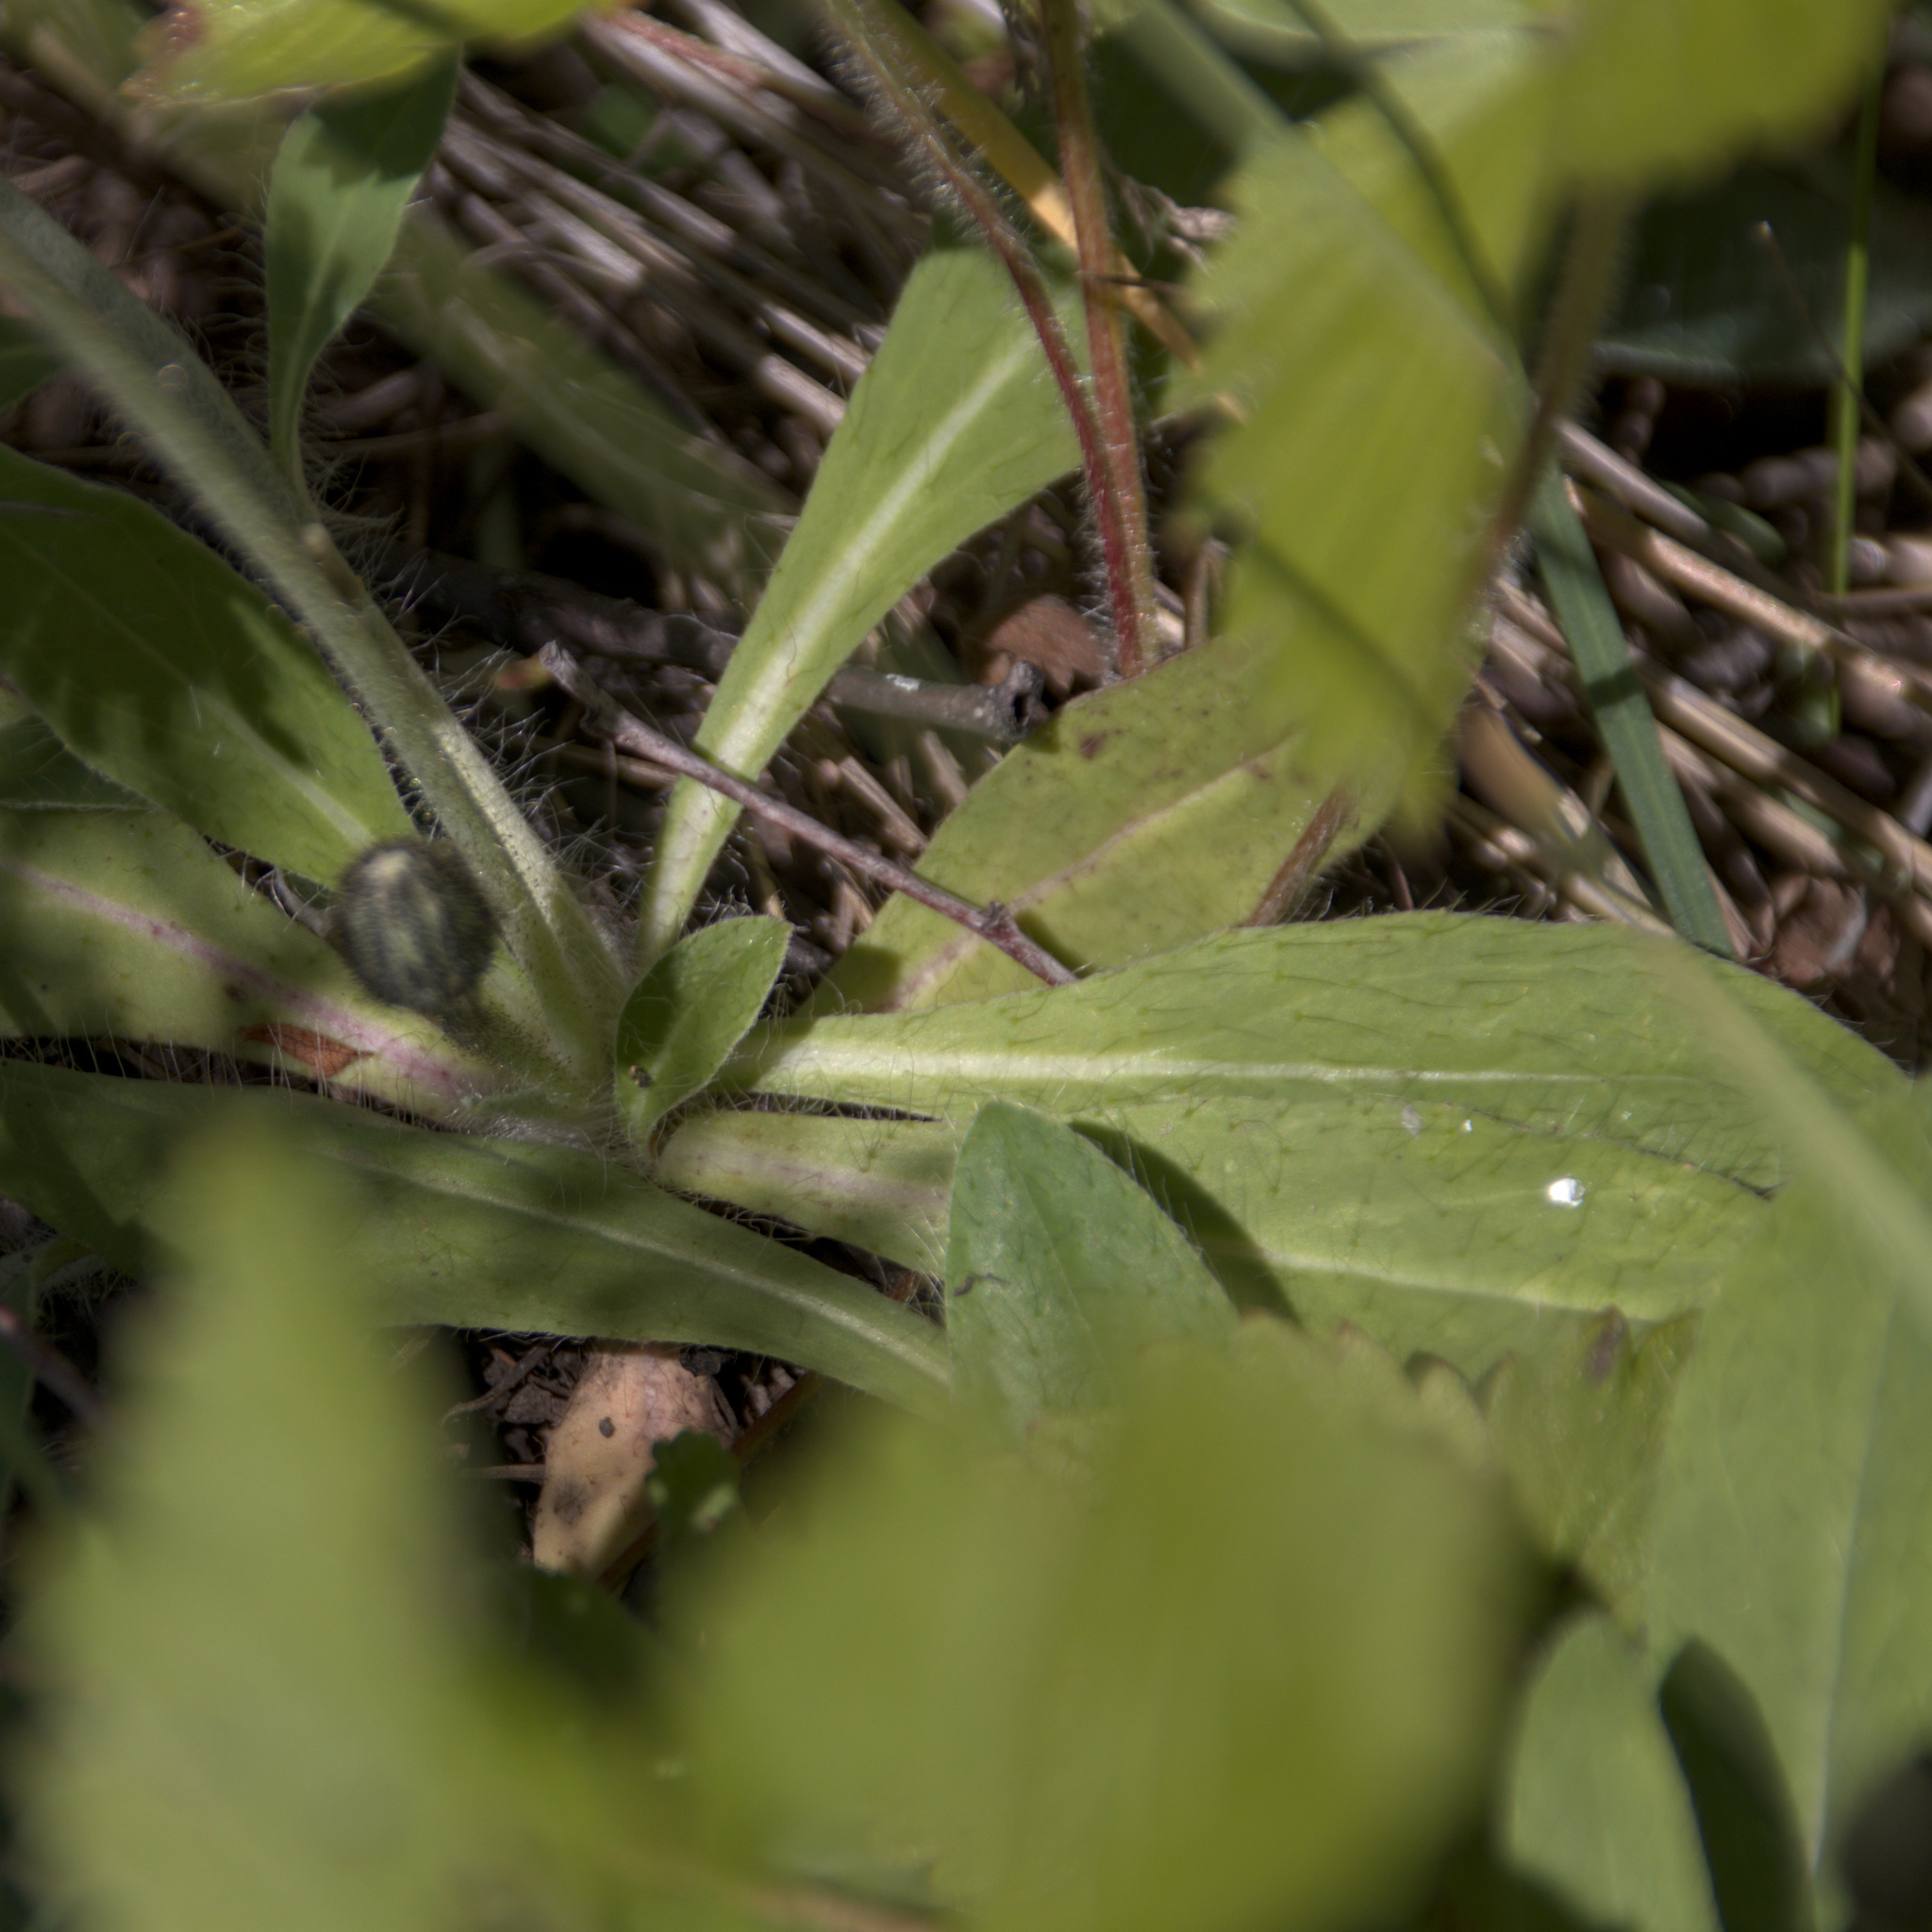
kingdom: Plantae
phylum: Tracheophyta
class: Magnoliopsida
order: Asterales
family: Asteraceae
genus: Pilosella
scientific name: Pilosella officinarum
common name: Mouse-ear hawkweed
